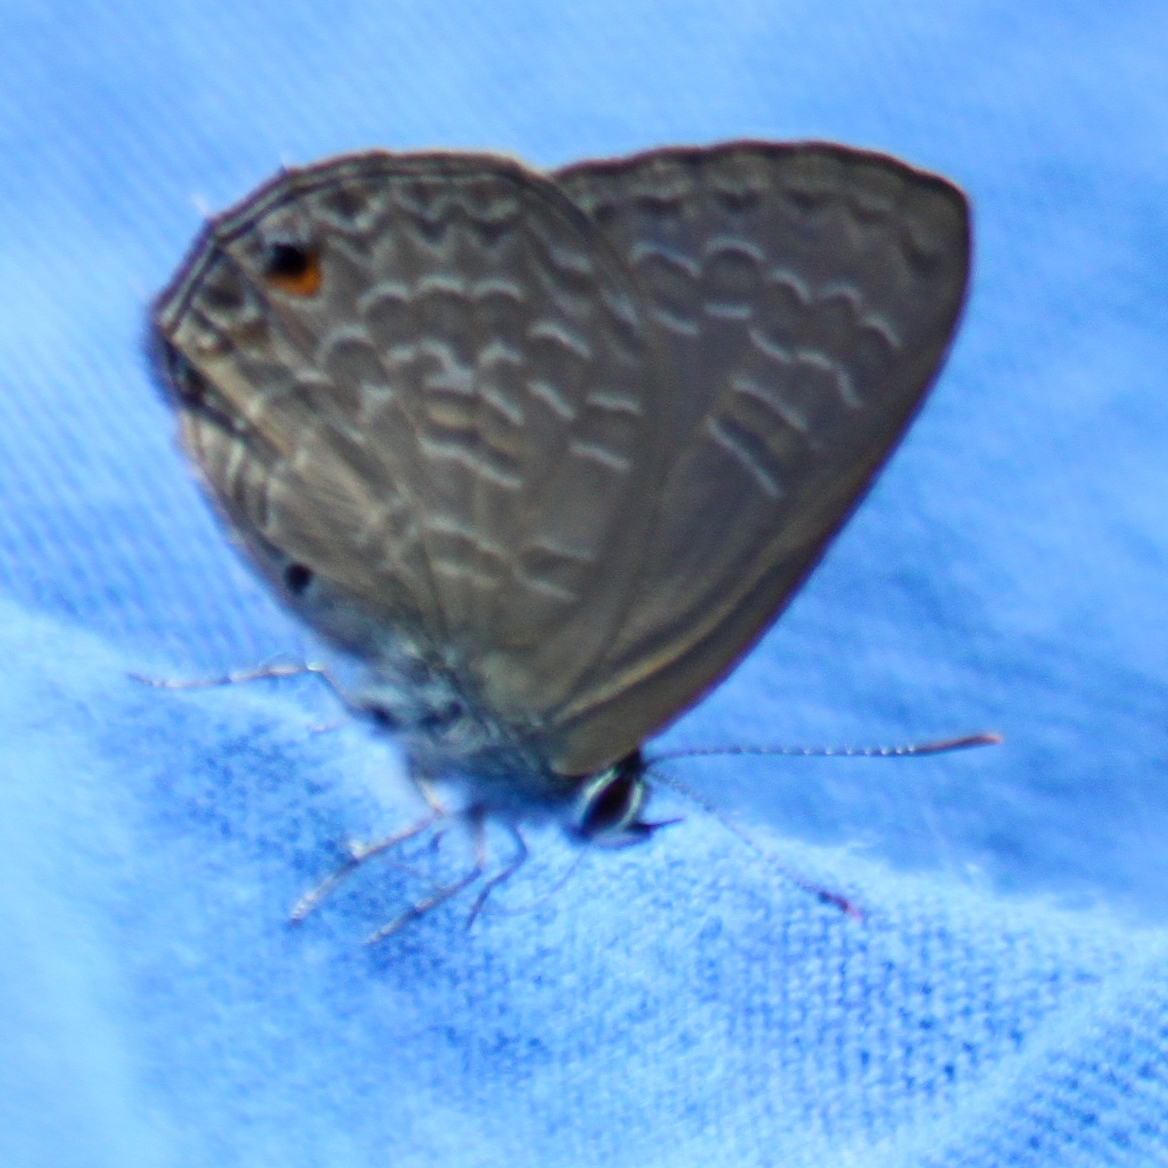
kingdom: Animalia
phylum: Arthropoda
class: Insecta
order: Lepidoptera
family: Lycaenidae
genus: Anthene
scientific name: Anthene emolus
